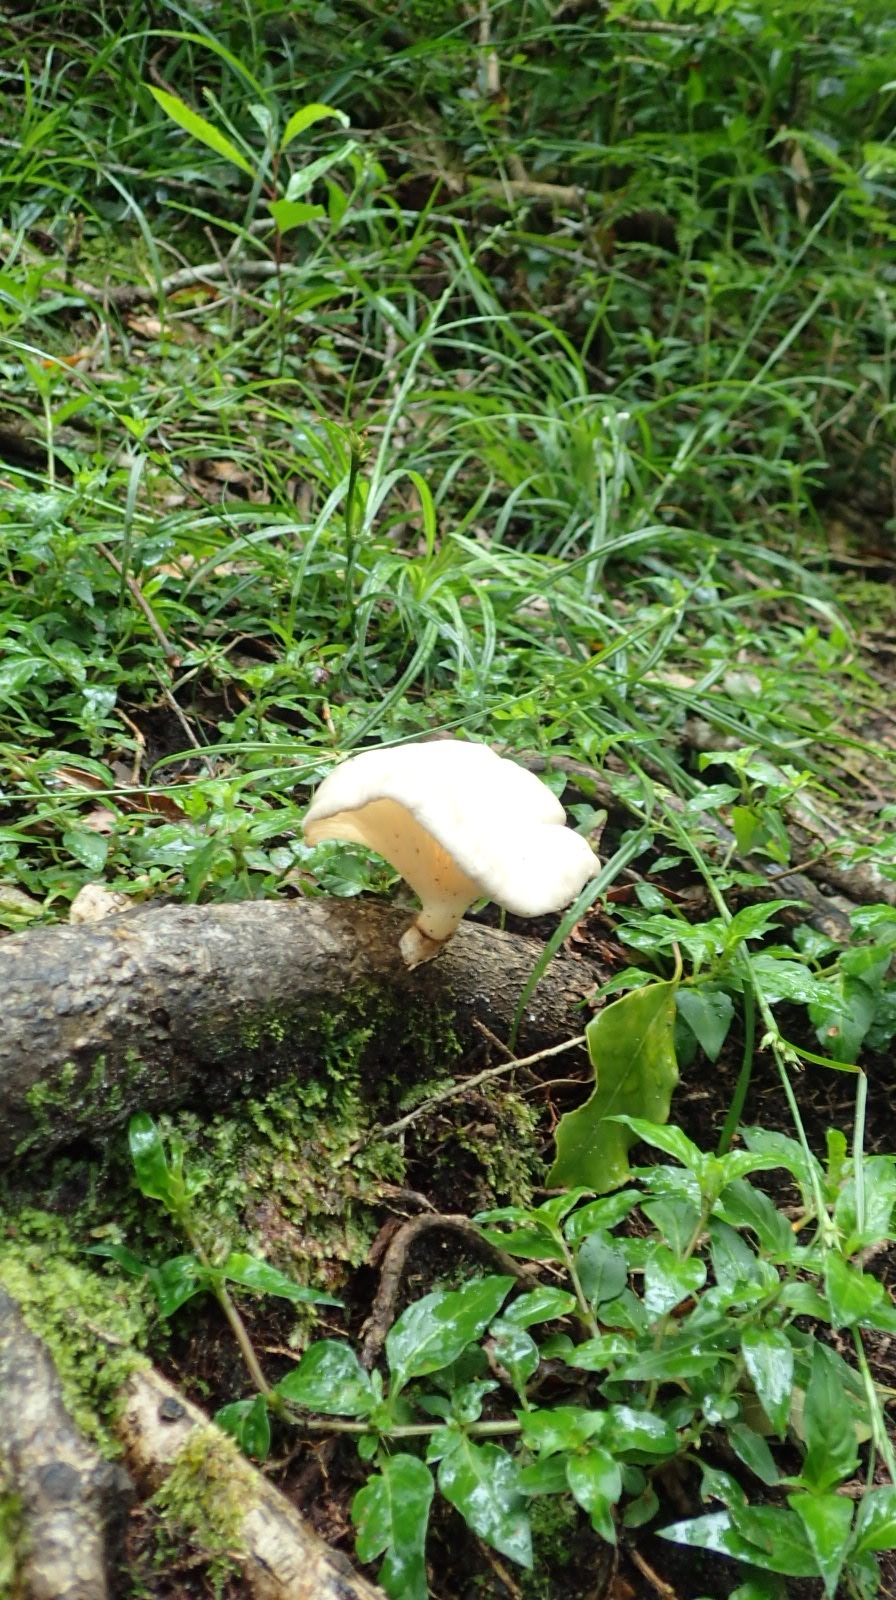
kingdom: Fungi
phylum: Basidiomycota
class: Agaricomycetes
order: Polyporales
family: Polyporaceae
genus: Lentinus
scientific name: Lentinus sajor-caju
